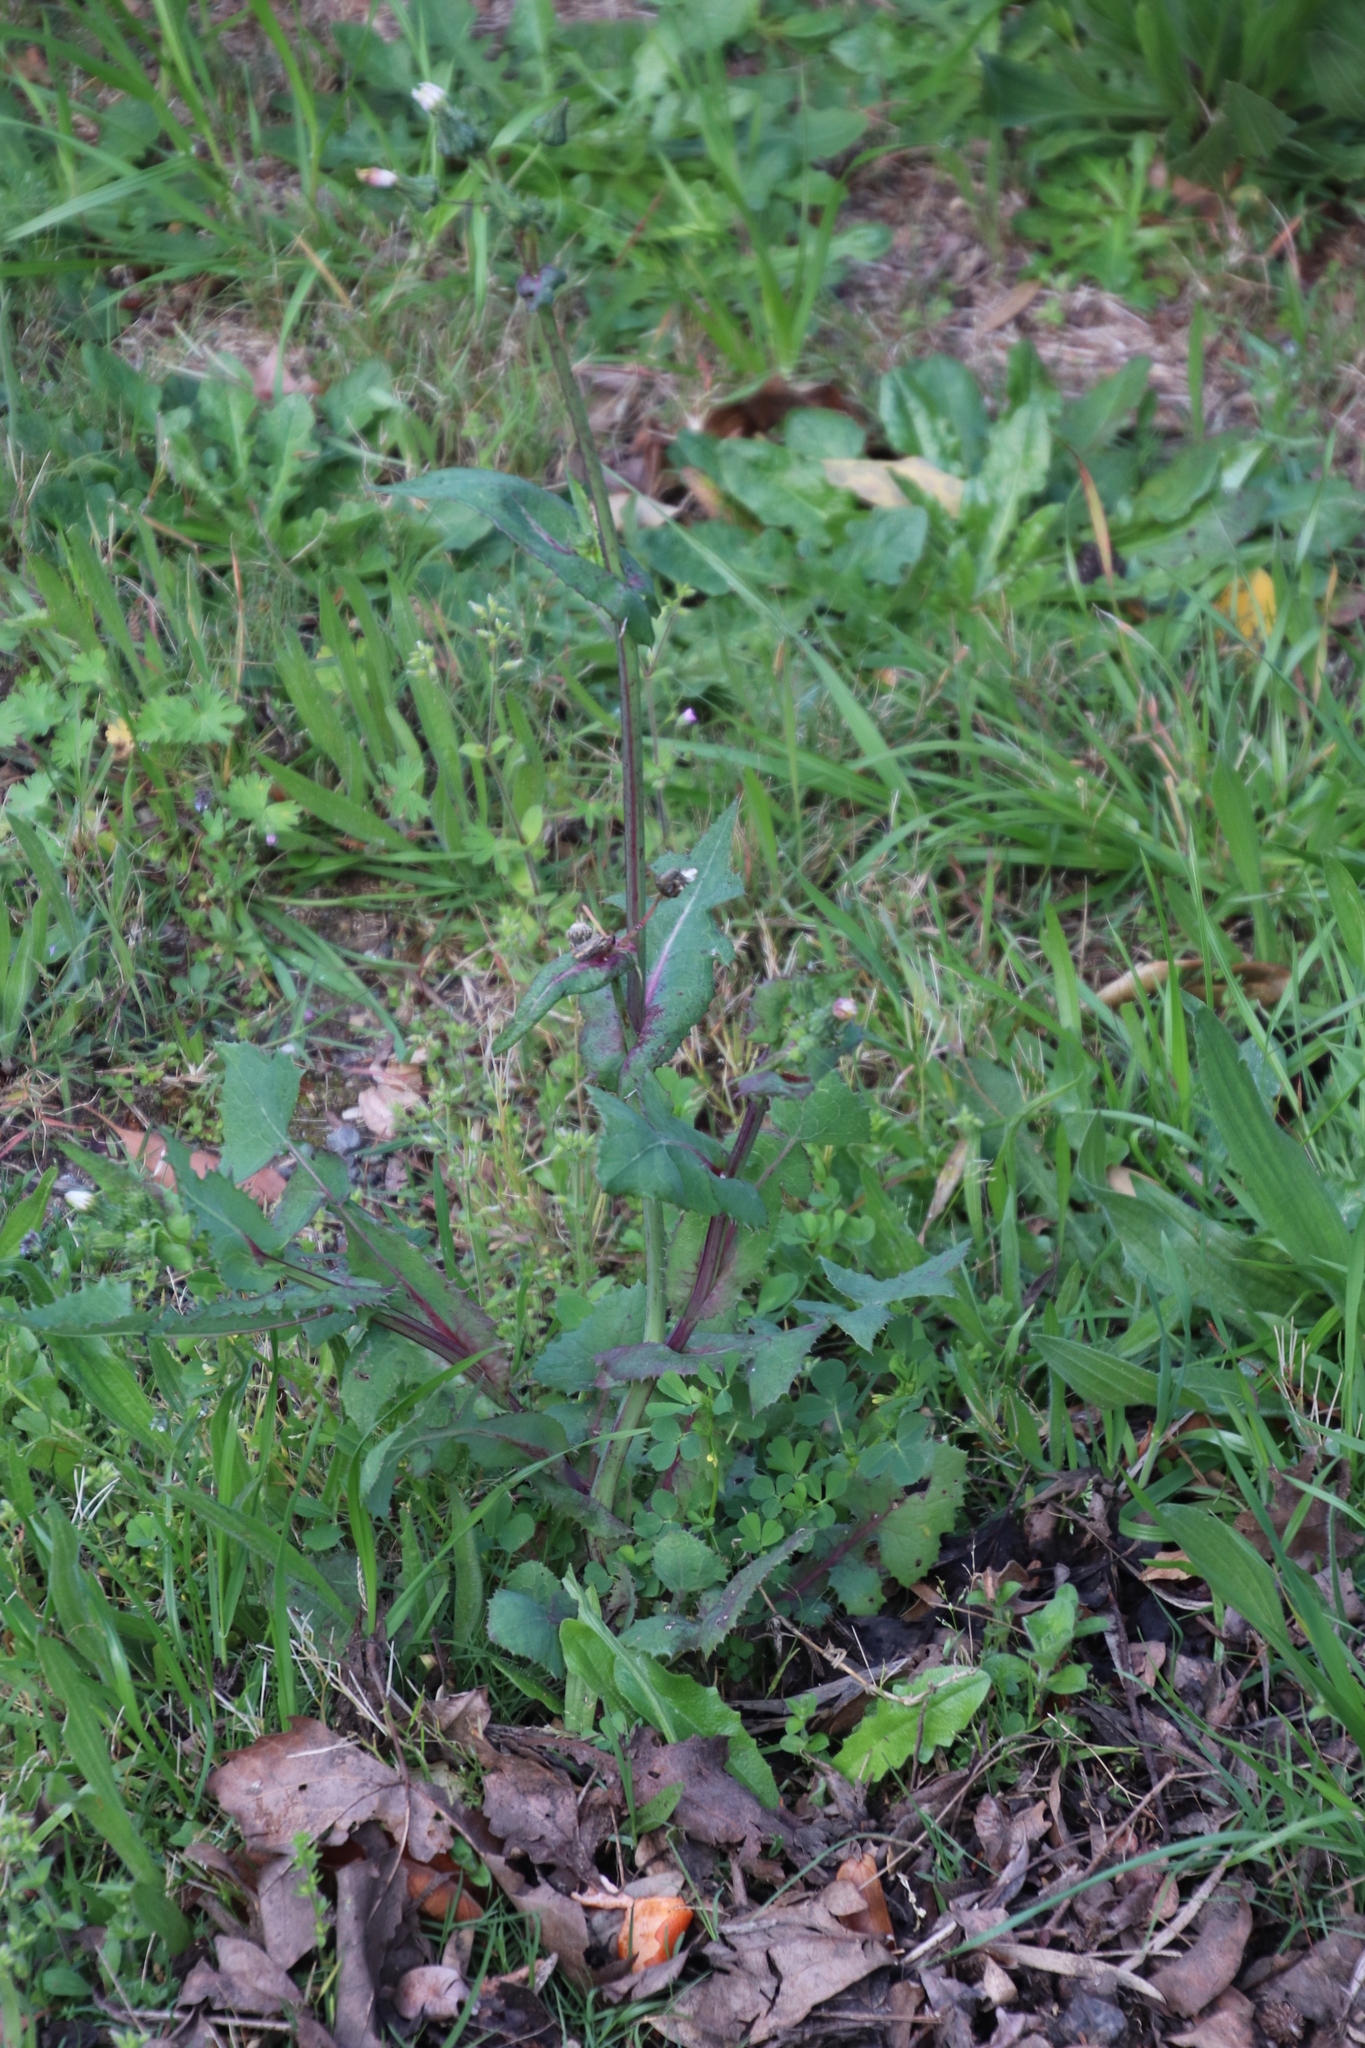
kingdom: Plantae
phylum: Tracheophyta
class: Magnoliopsida
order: Asterales
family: Asteraceae
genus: Sonchus
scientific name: Sonchus oleraceus
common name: Common sowthistle
